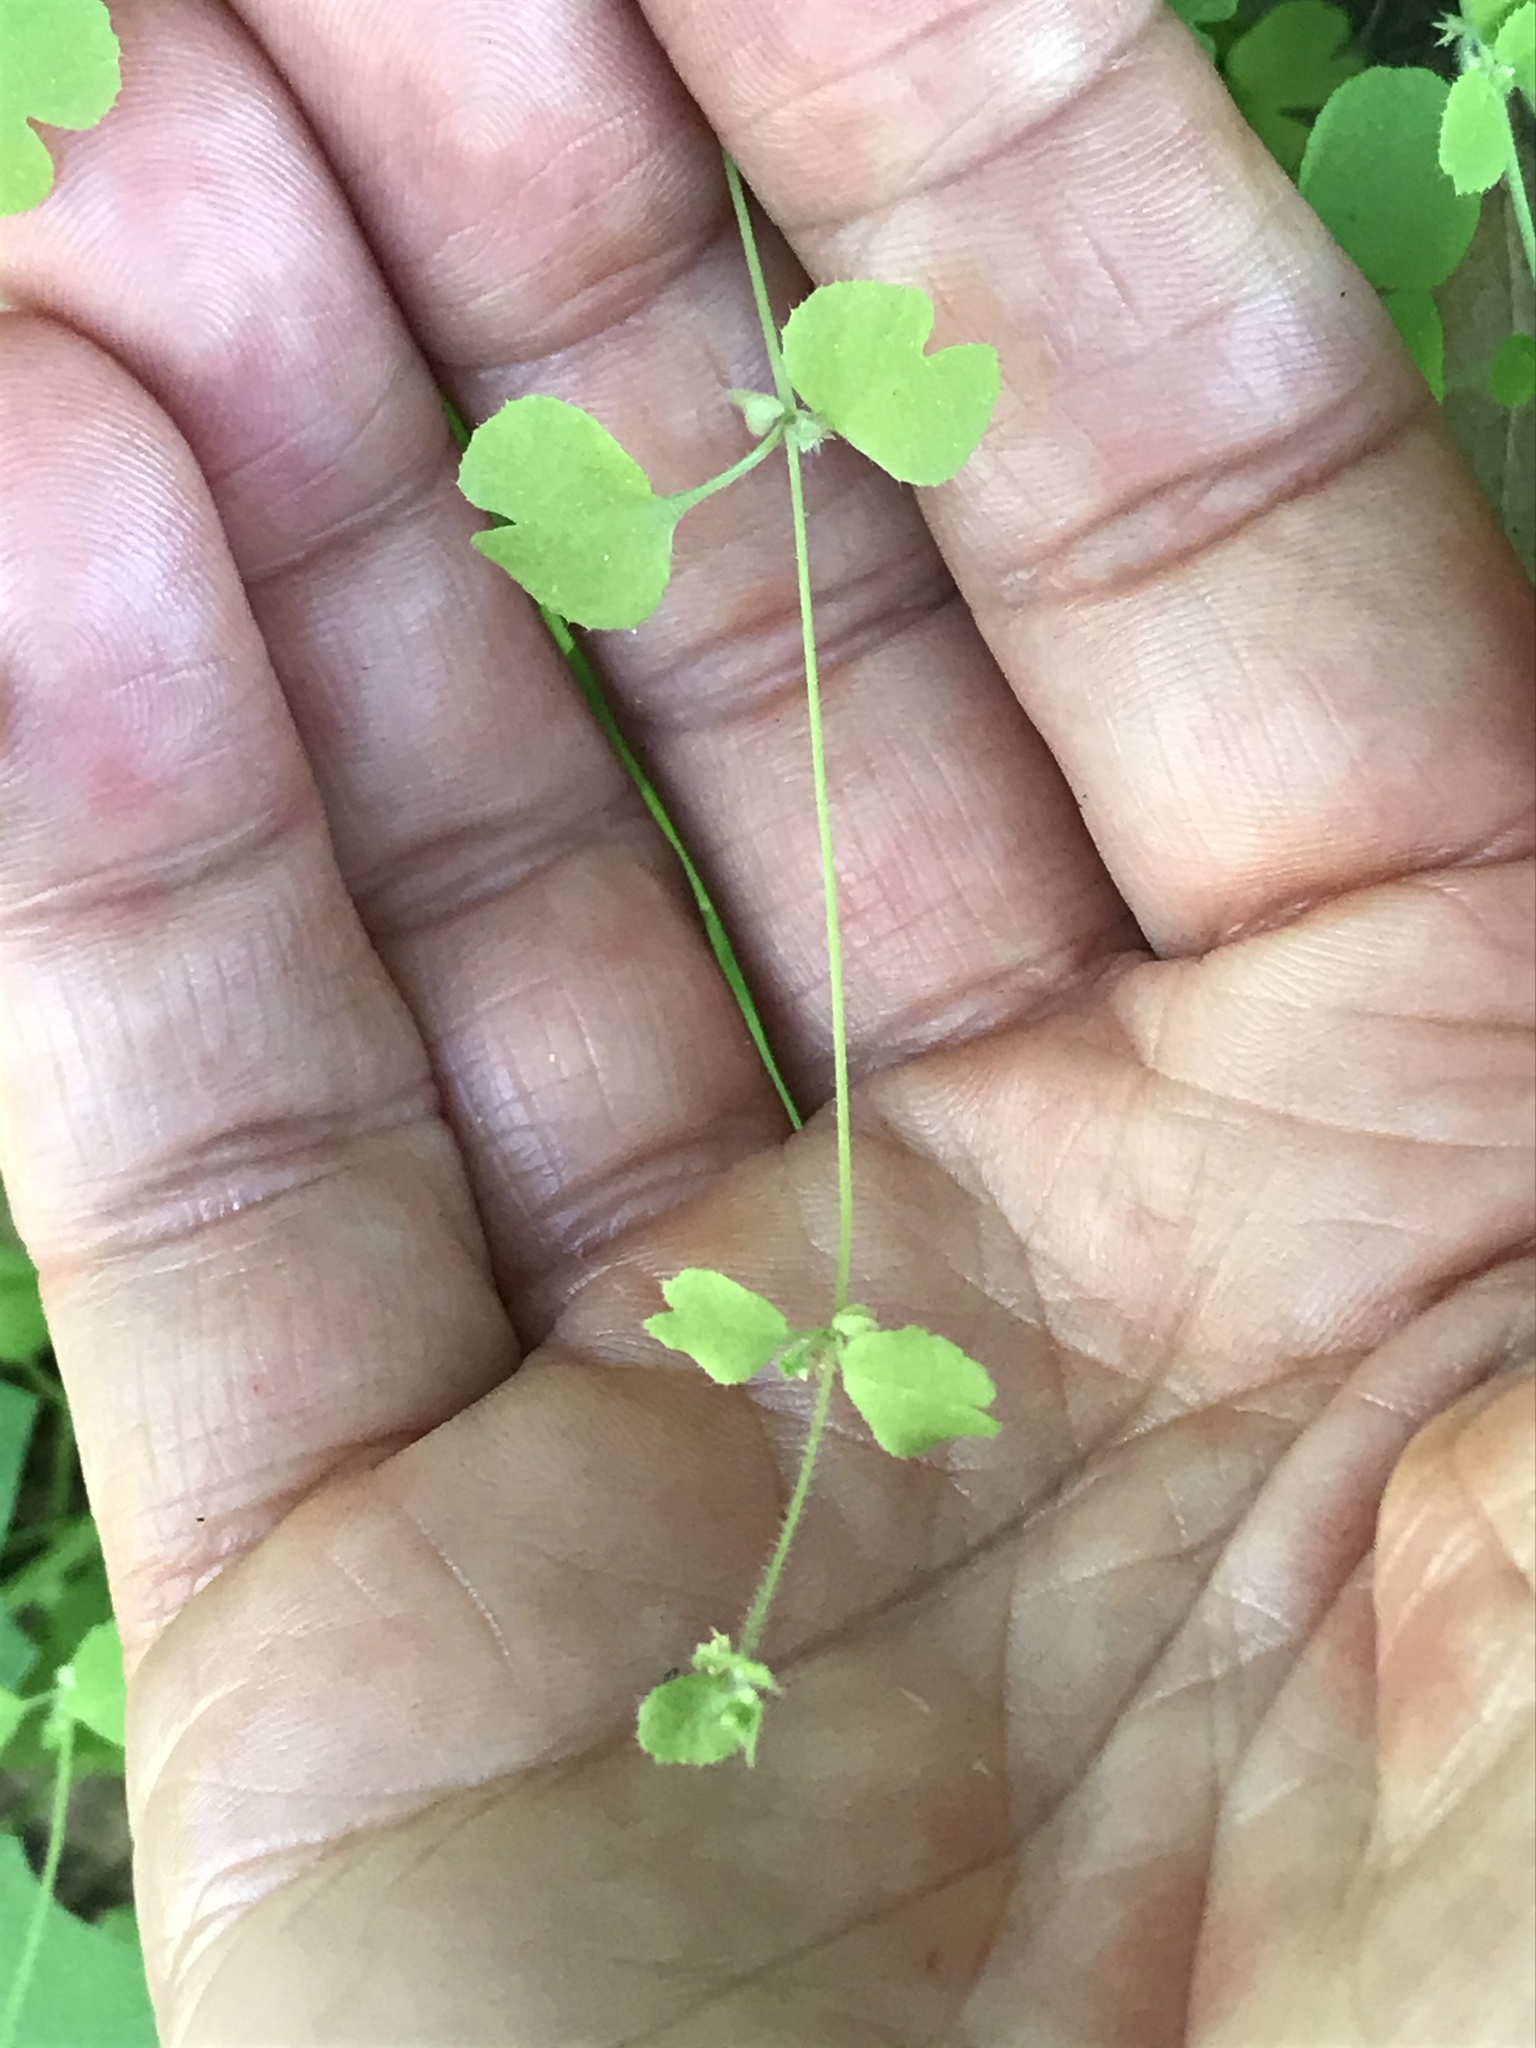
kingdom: Plantae
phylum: Tracheophyta
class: Magnoliopsida
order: Caryophyllales
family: Polygonaceae
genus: Pterostegia
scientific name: Pterostegia drymarioides
